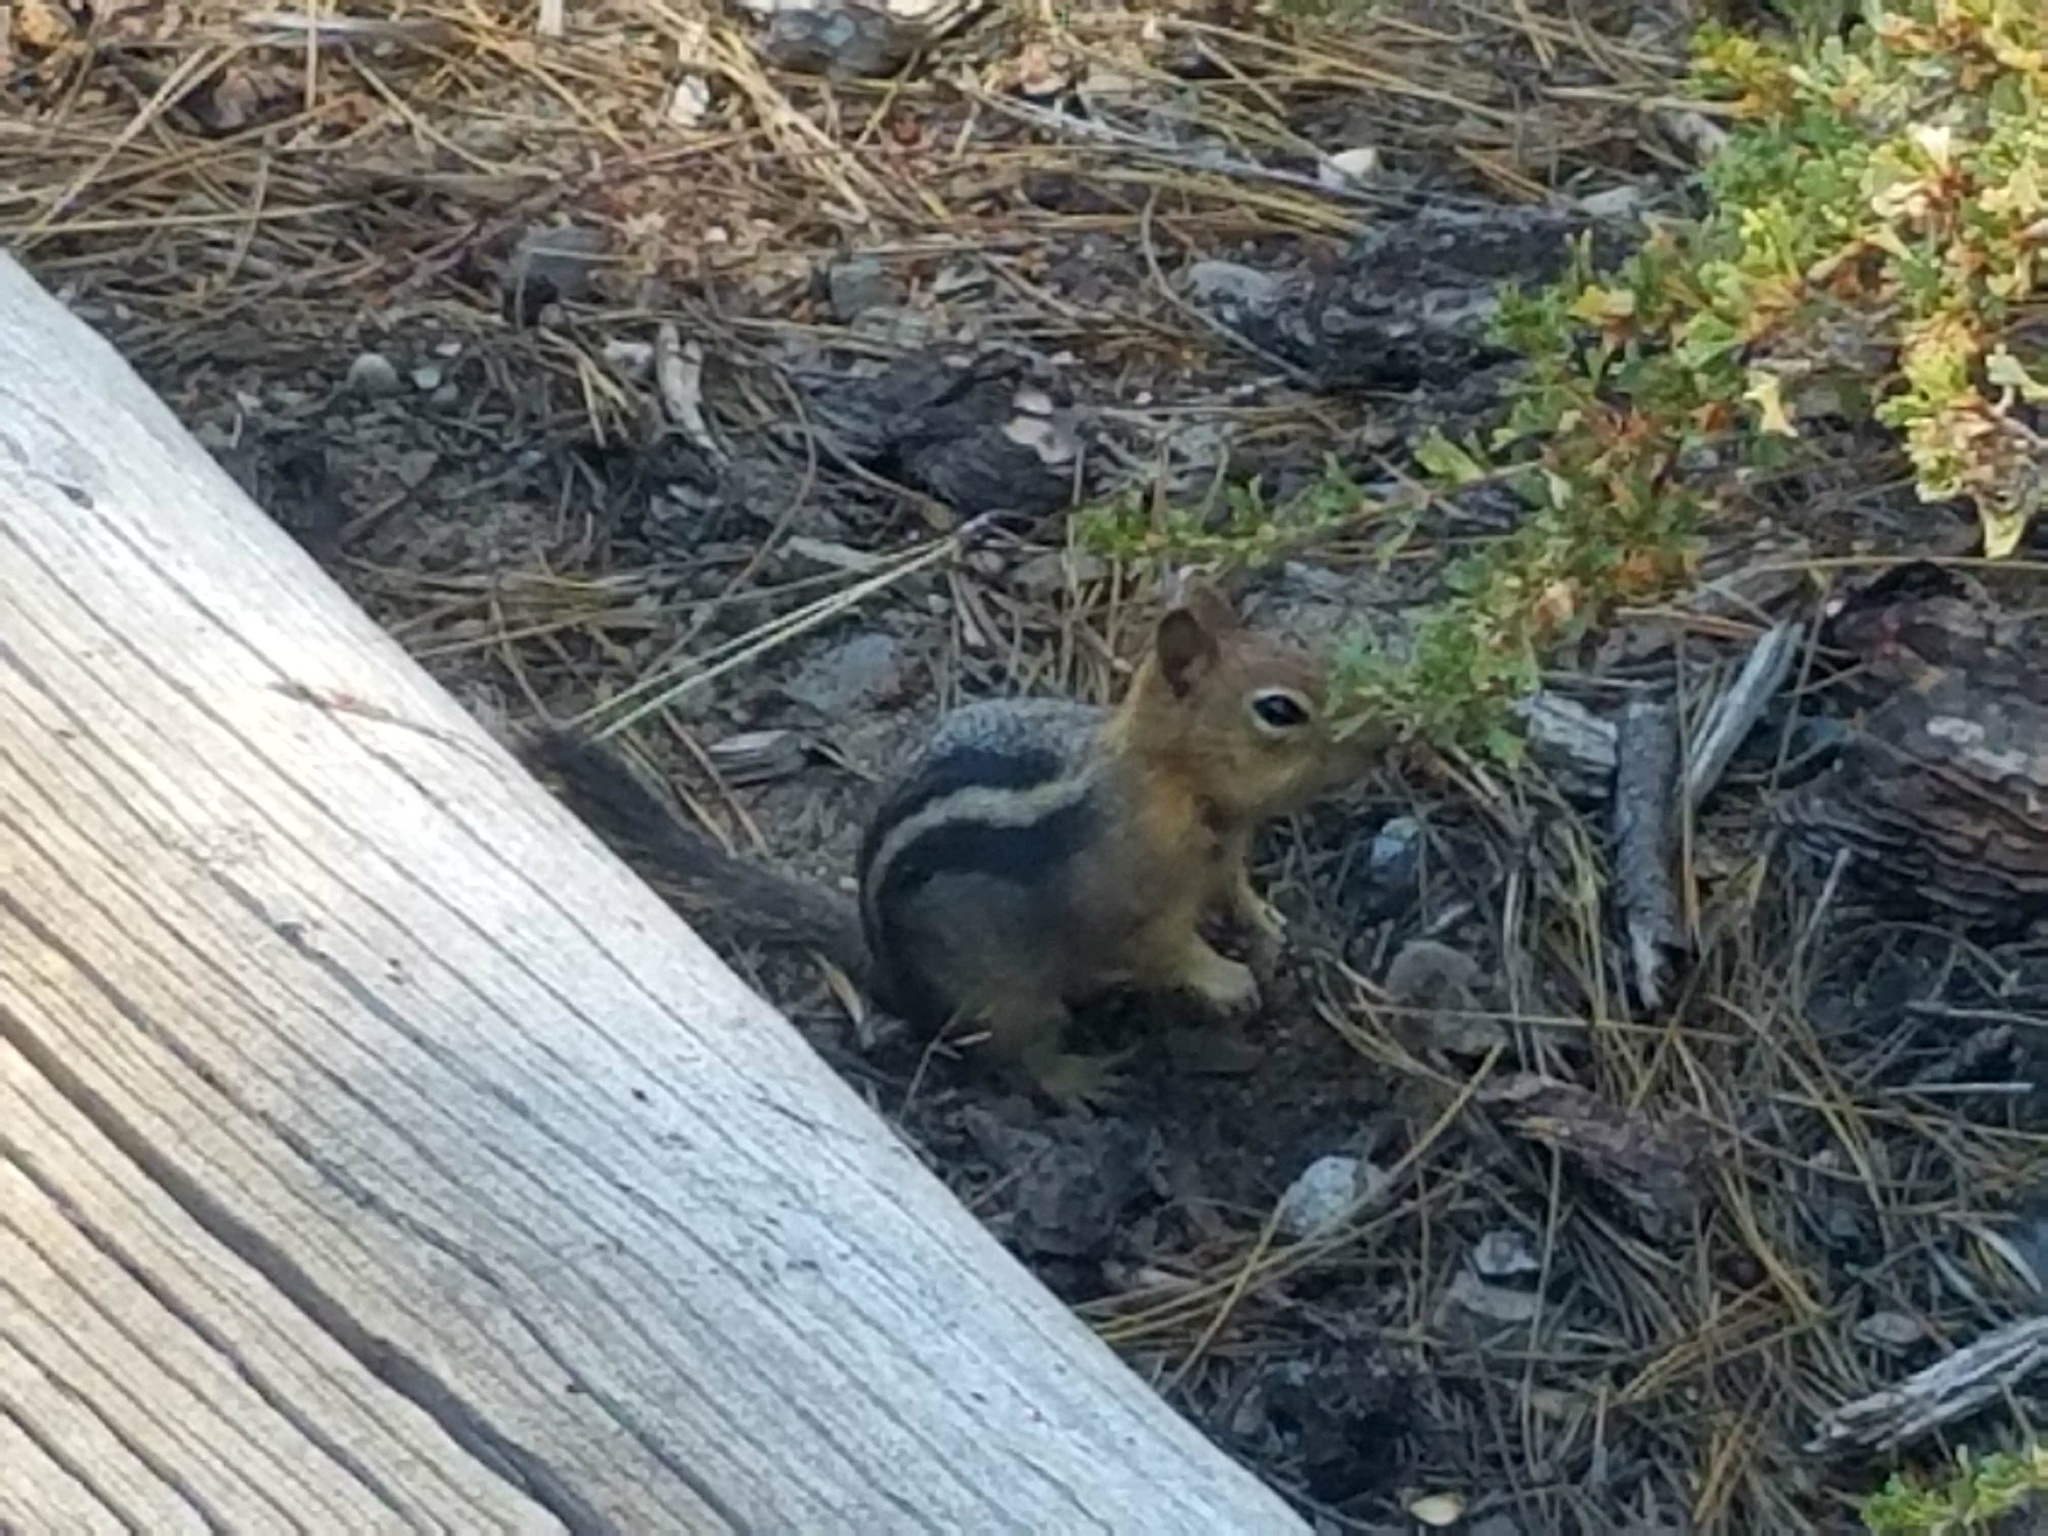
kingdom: Animalia
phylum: Chordata
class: Mammalia
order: Rodentia
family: Sciuridae
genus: Callospermophilus
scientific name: Callospermophilus lateralis
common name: Golden-mantled ground squirrel
